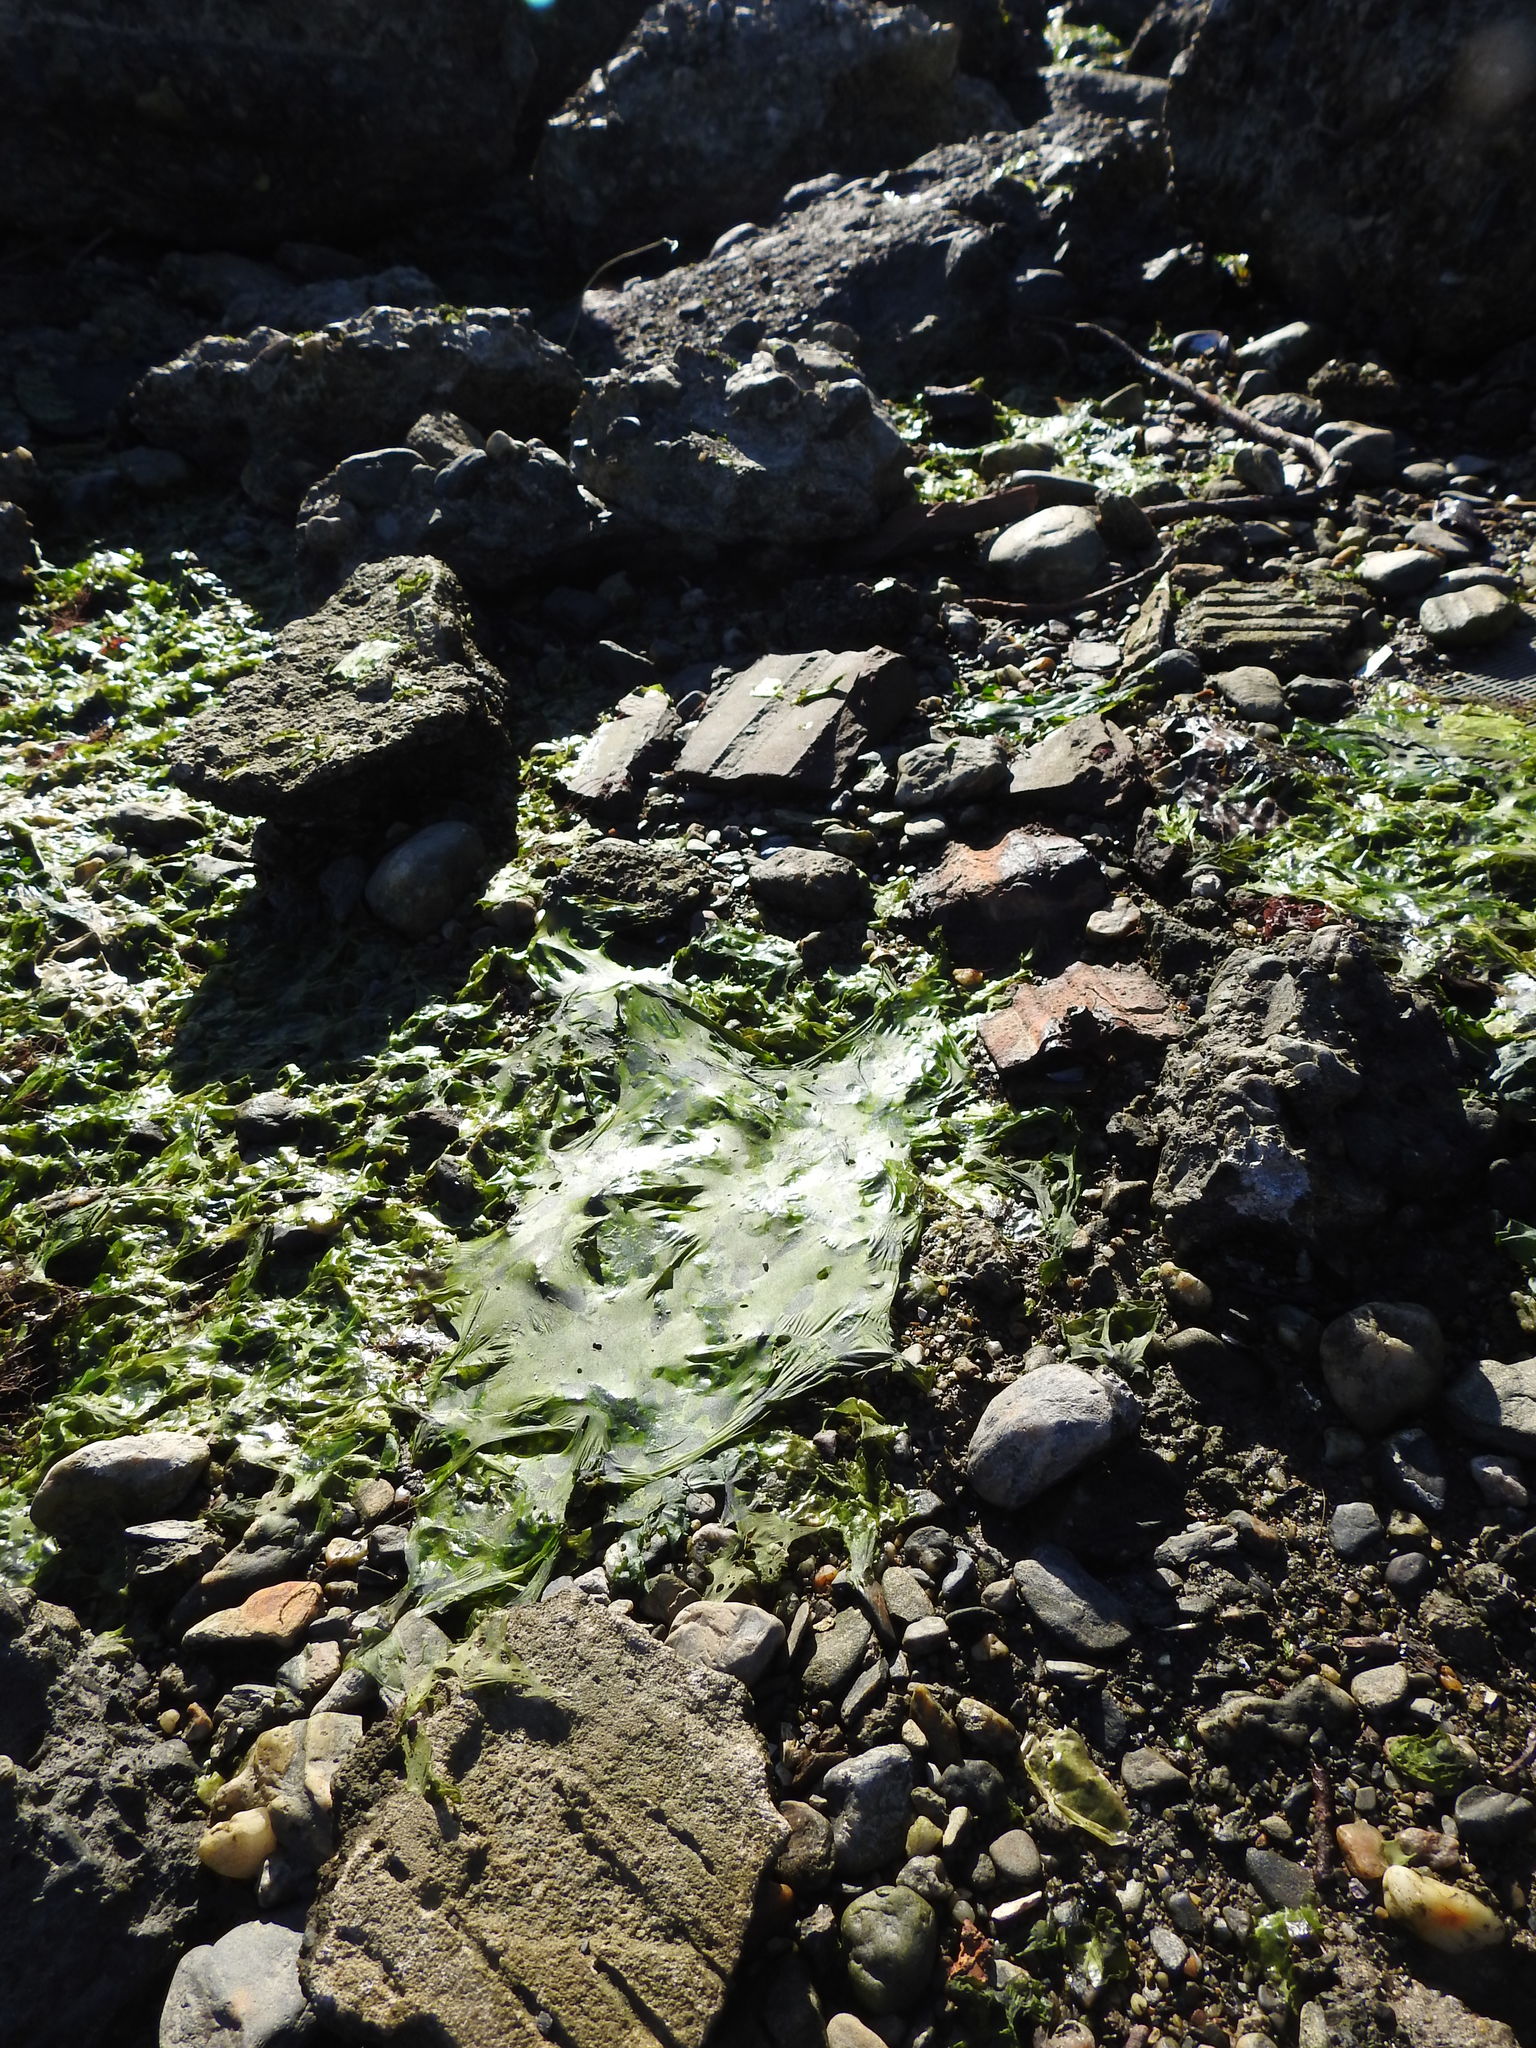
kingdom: Plantae
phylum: Chlorophyta
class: Ulvophyceae
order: Ulvales
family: Ulvaceae
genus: Ulva
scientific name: Ulva lactuca
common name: Sea lettuce
